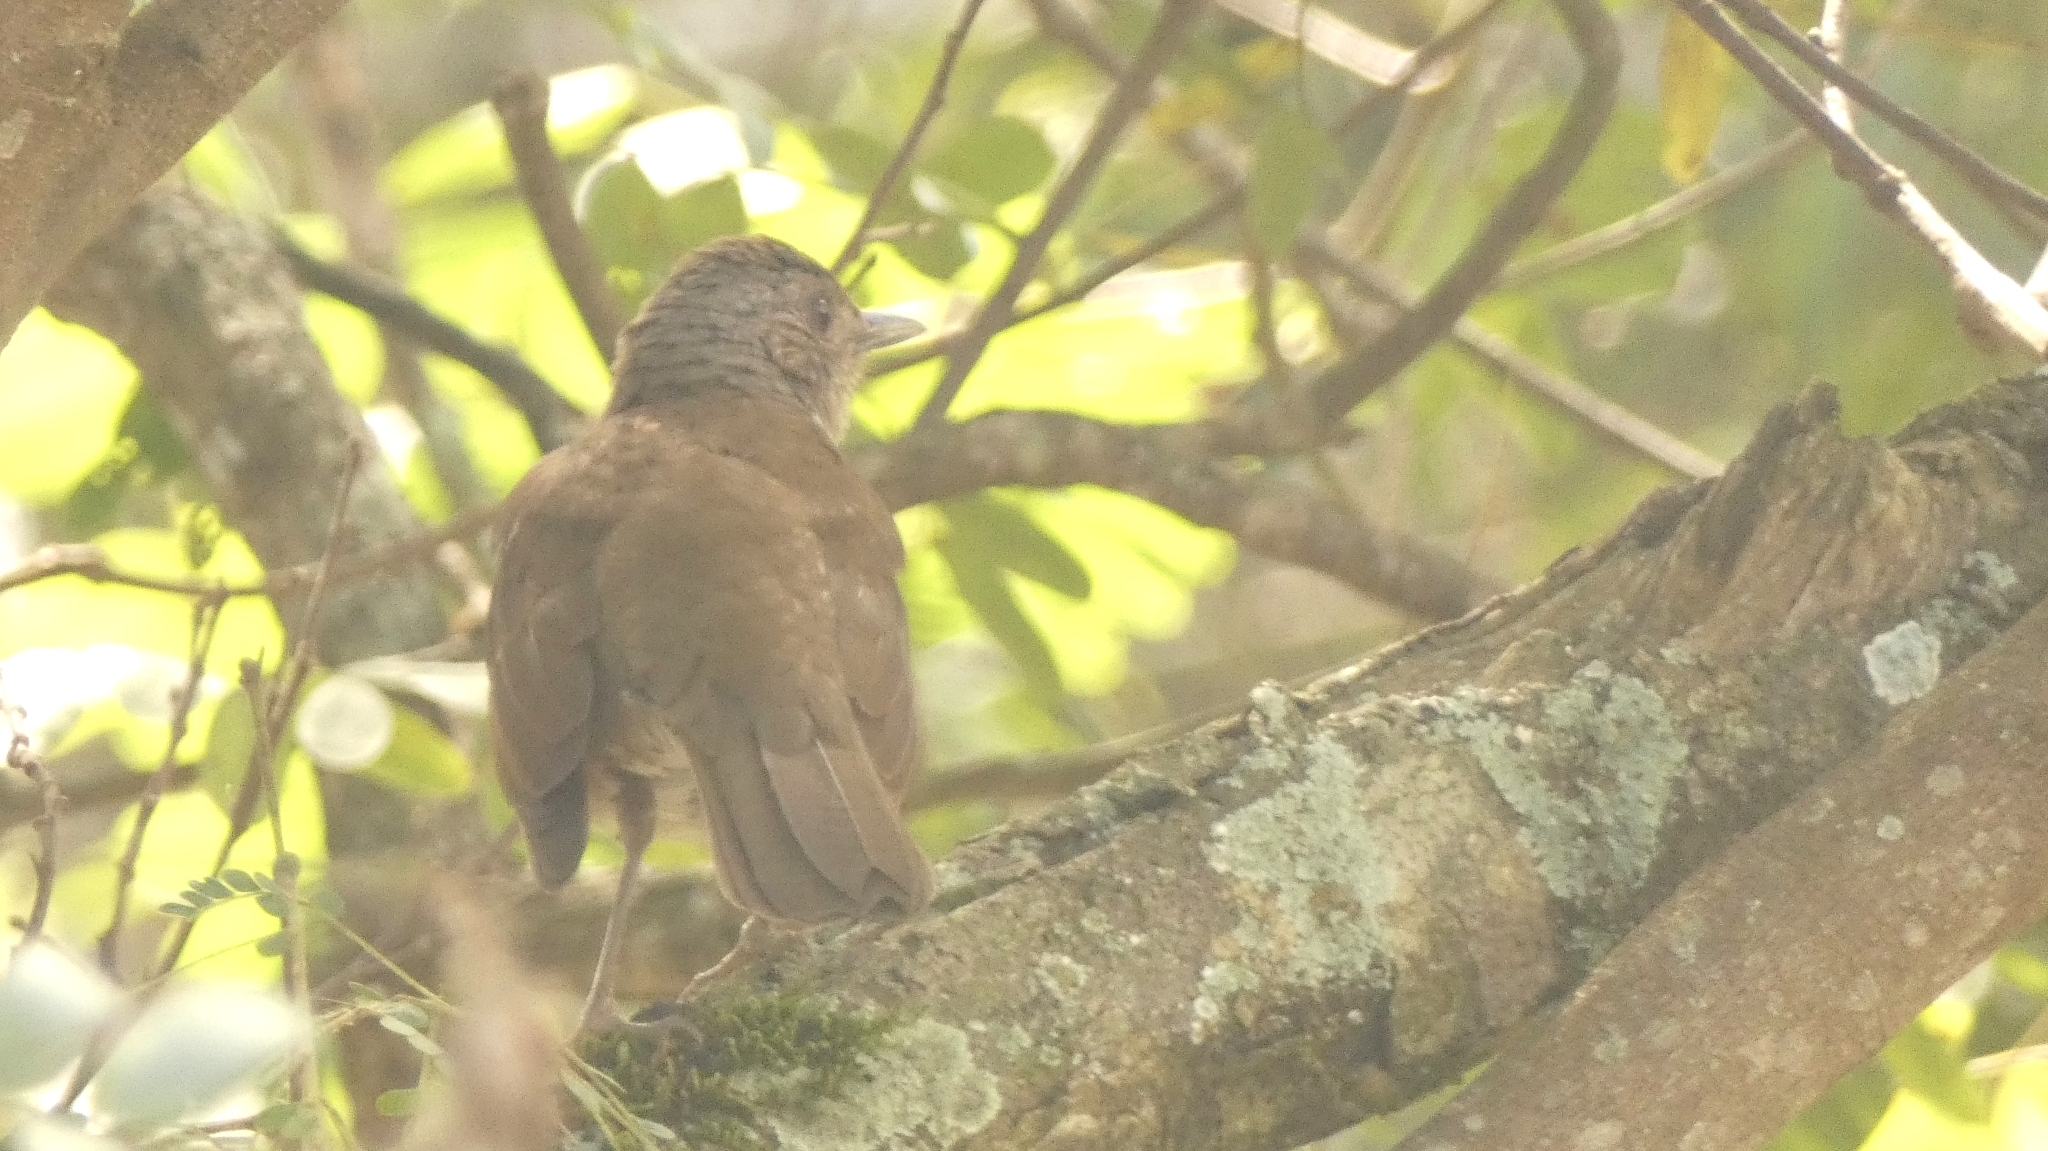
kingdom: Animalia
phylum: Chordata
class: Aves
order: Passeriformes
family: Turdidae
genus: Turdus
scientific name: Turdus leucomelas
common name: Pale-breasted thrush
